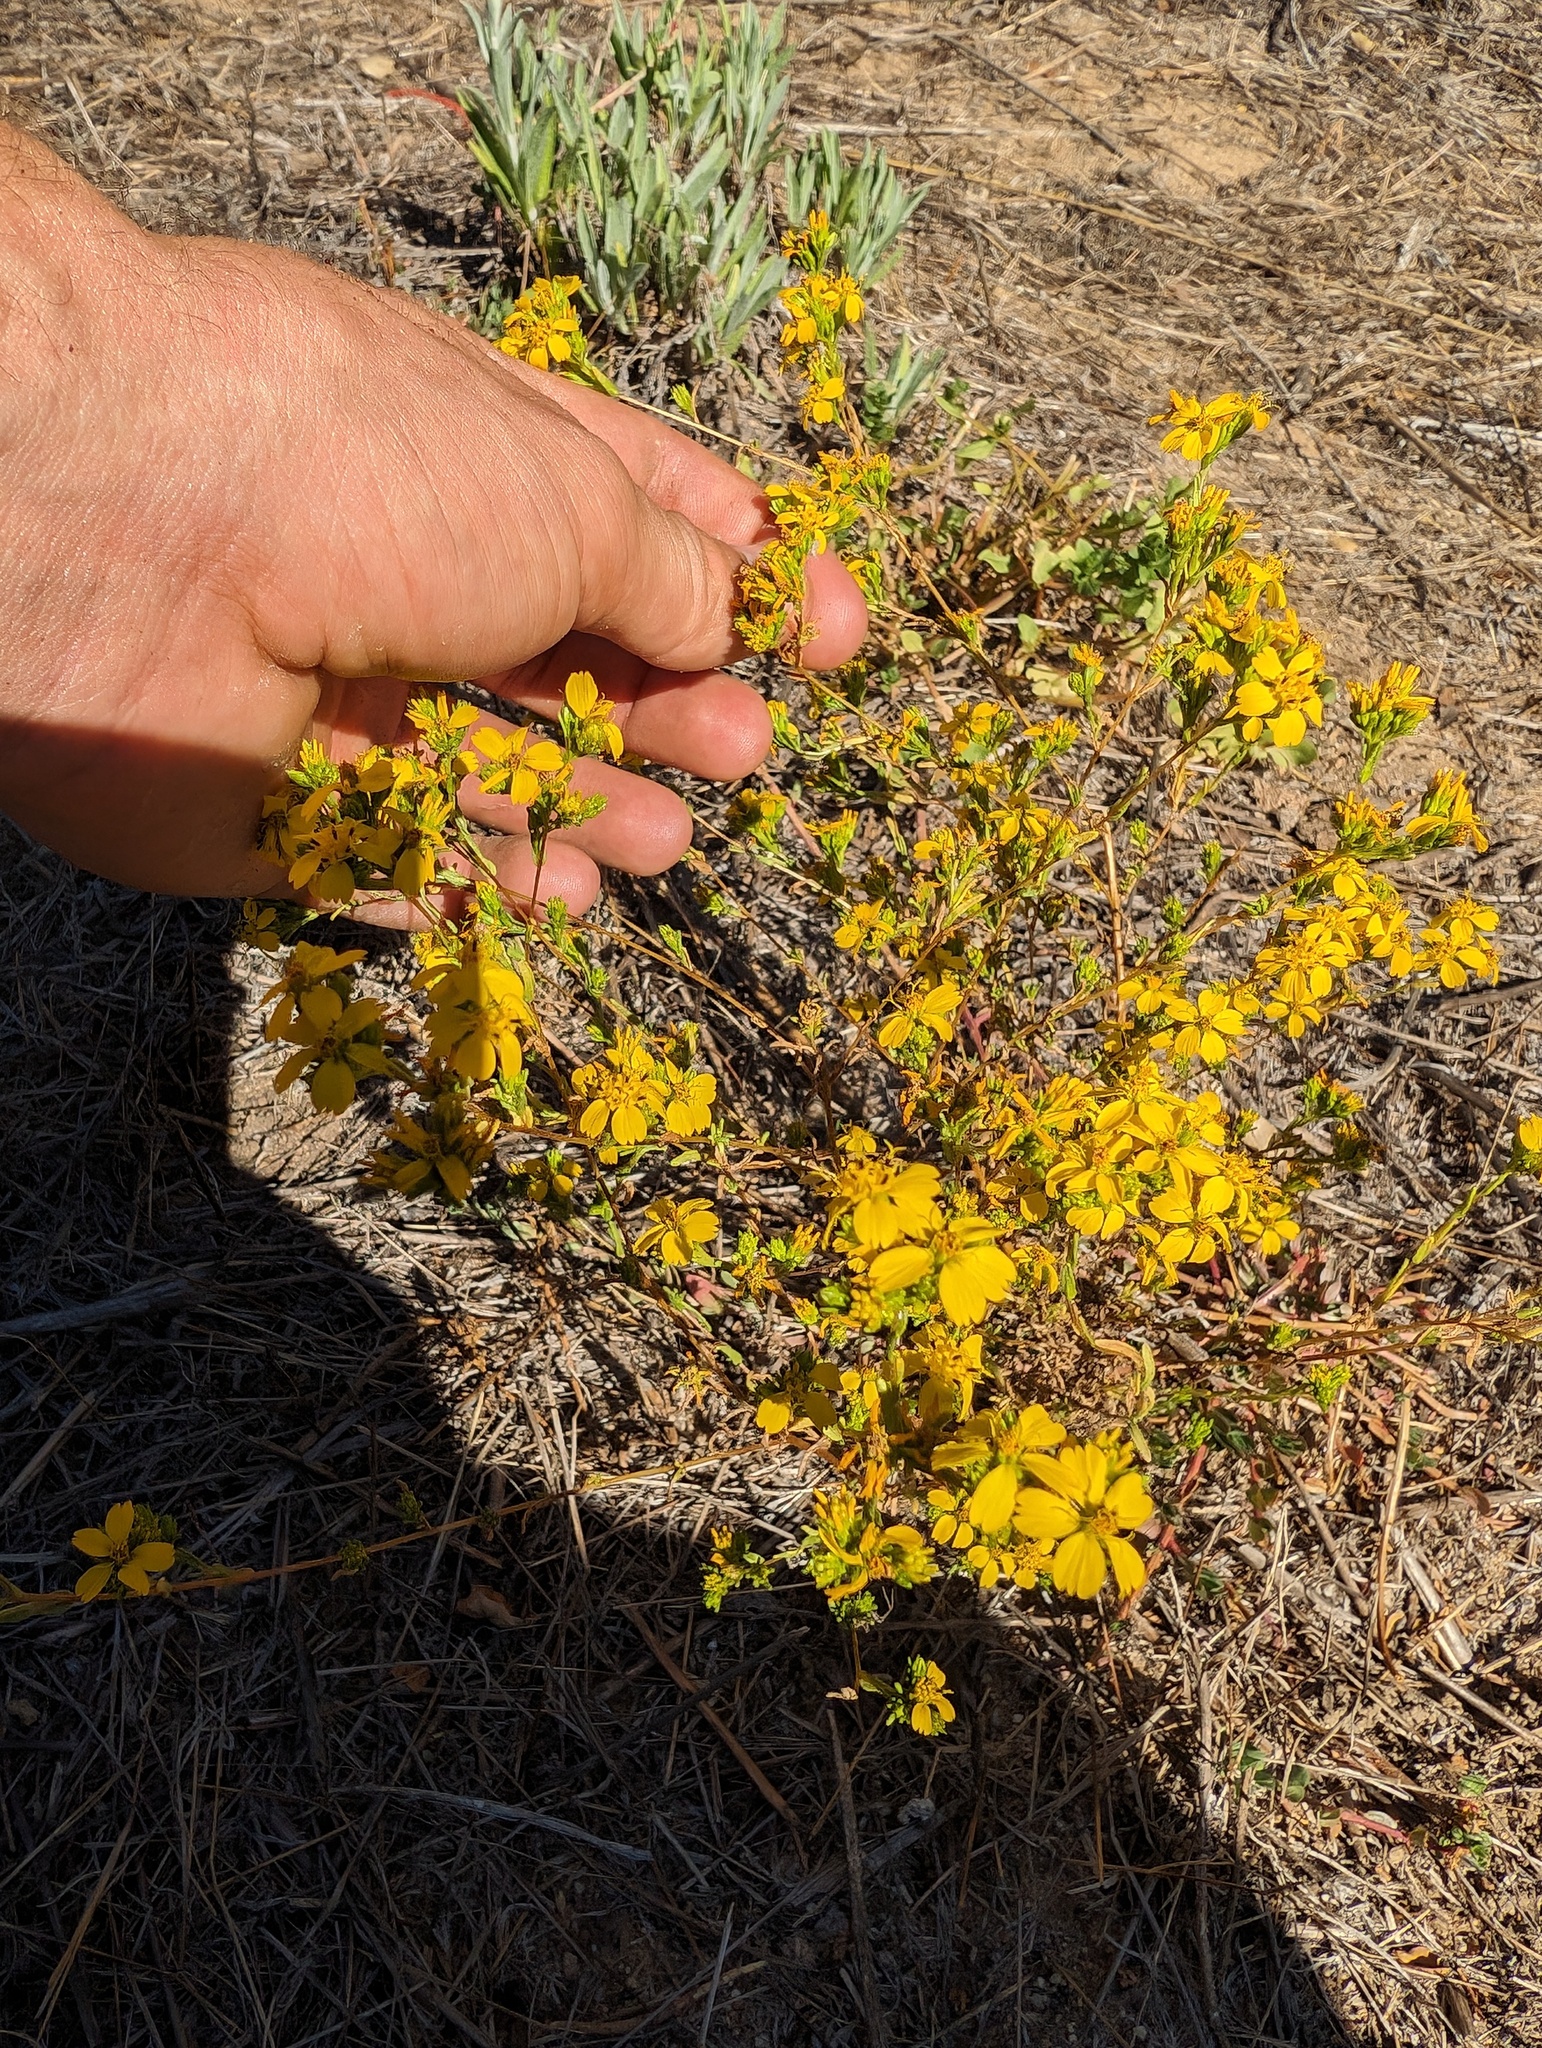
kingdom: Plantae
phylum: Tracheophyta
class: Magnoliopsida
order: Asterales
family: Asteraceae
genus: Deinandra
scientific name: Deinandra fasciculata
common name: Clustered tarweed
